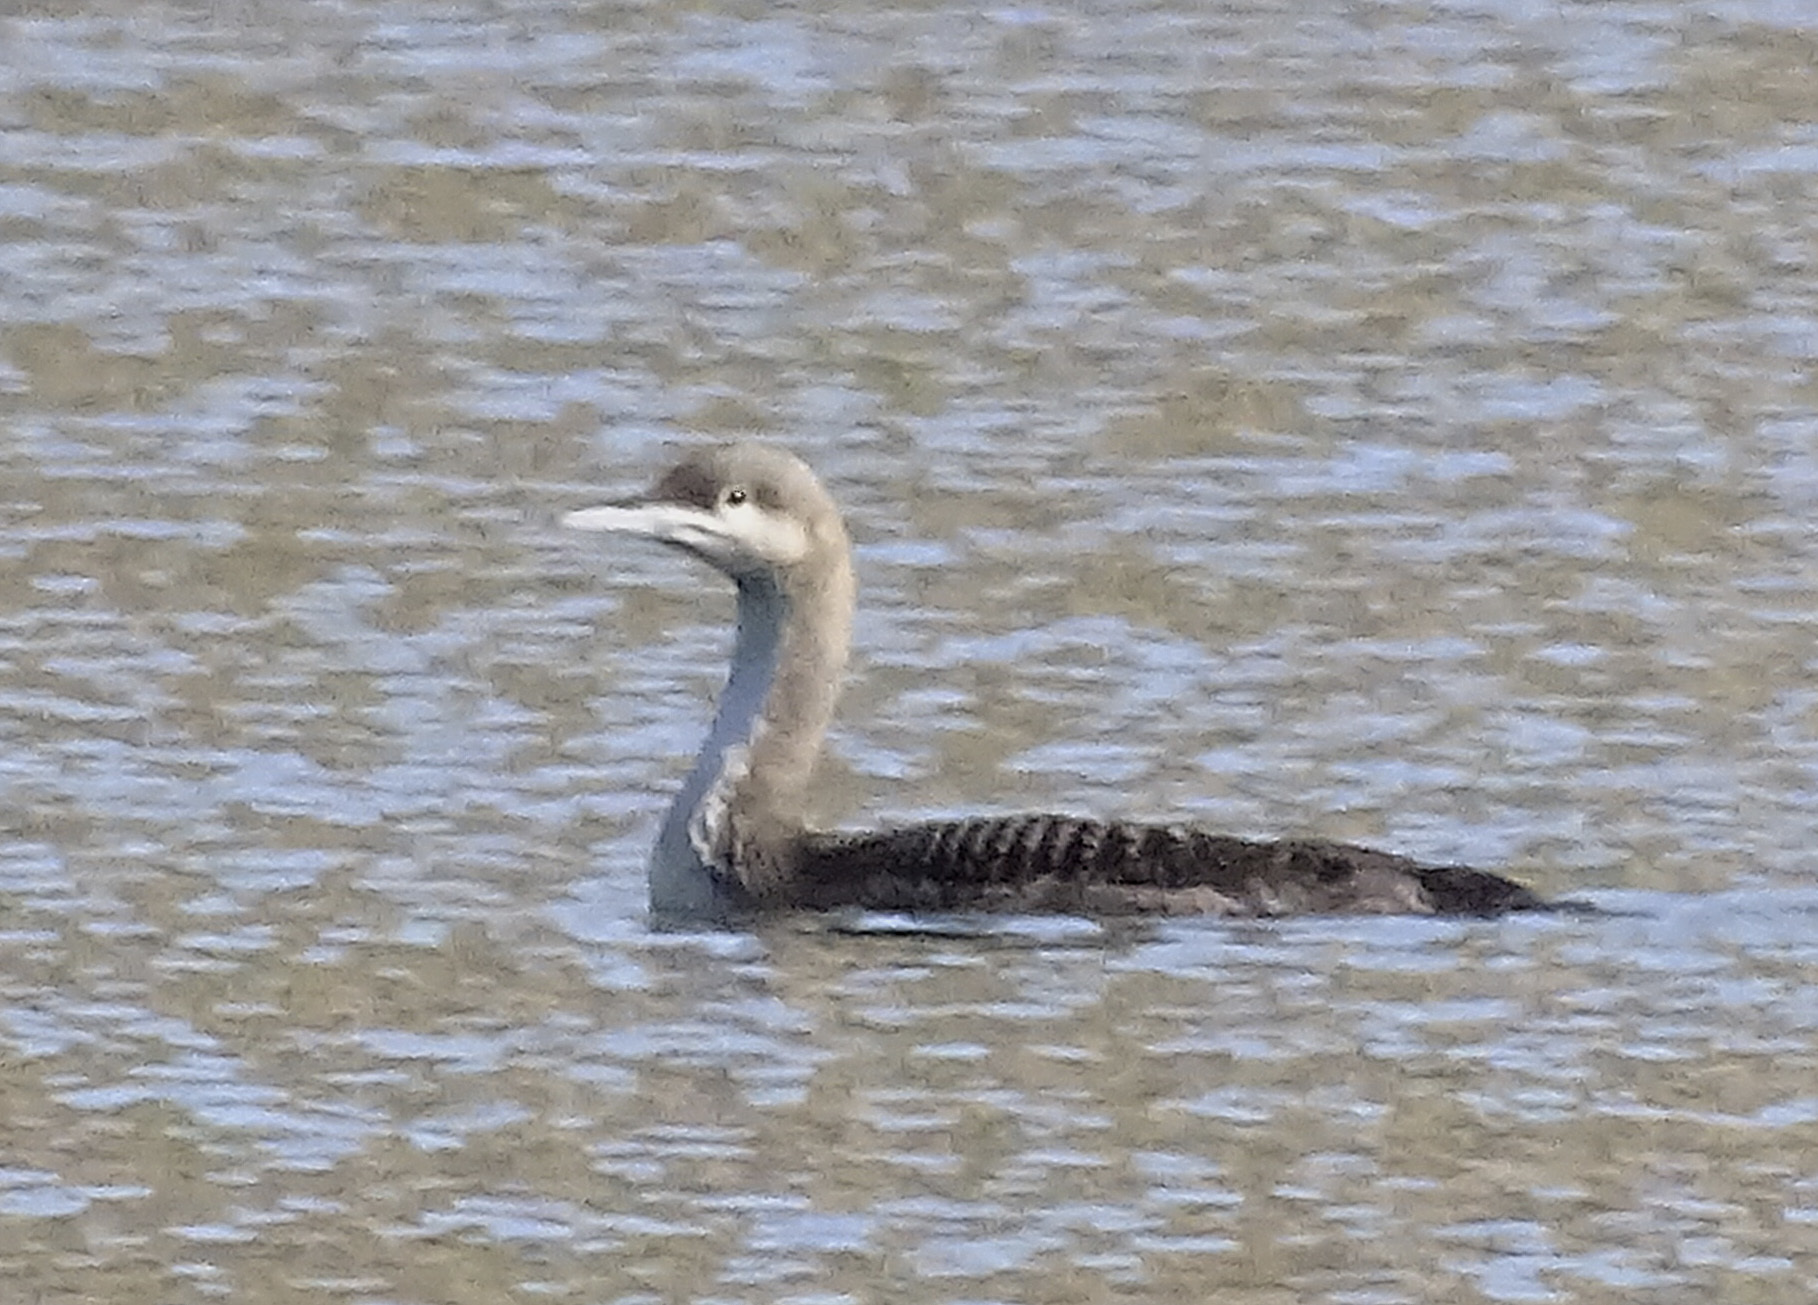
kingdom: Animalia
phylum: Chordata
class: Aves
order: Gaviiformes
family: Gaviidae
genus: Gavia
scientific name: Gavia pacifica
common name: Pacific loon
